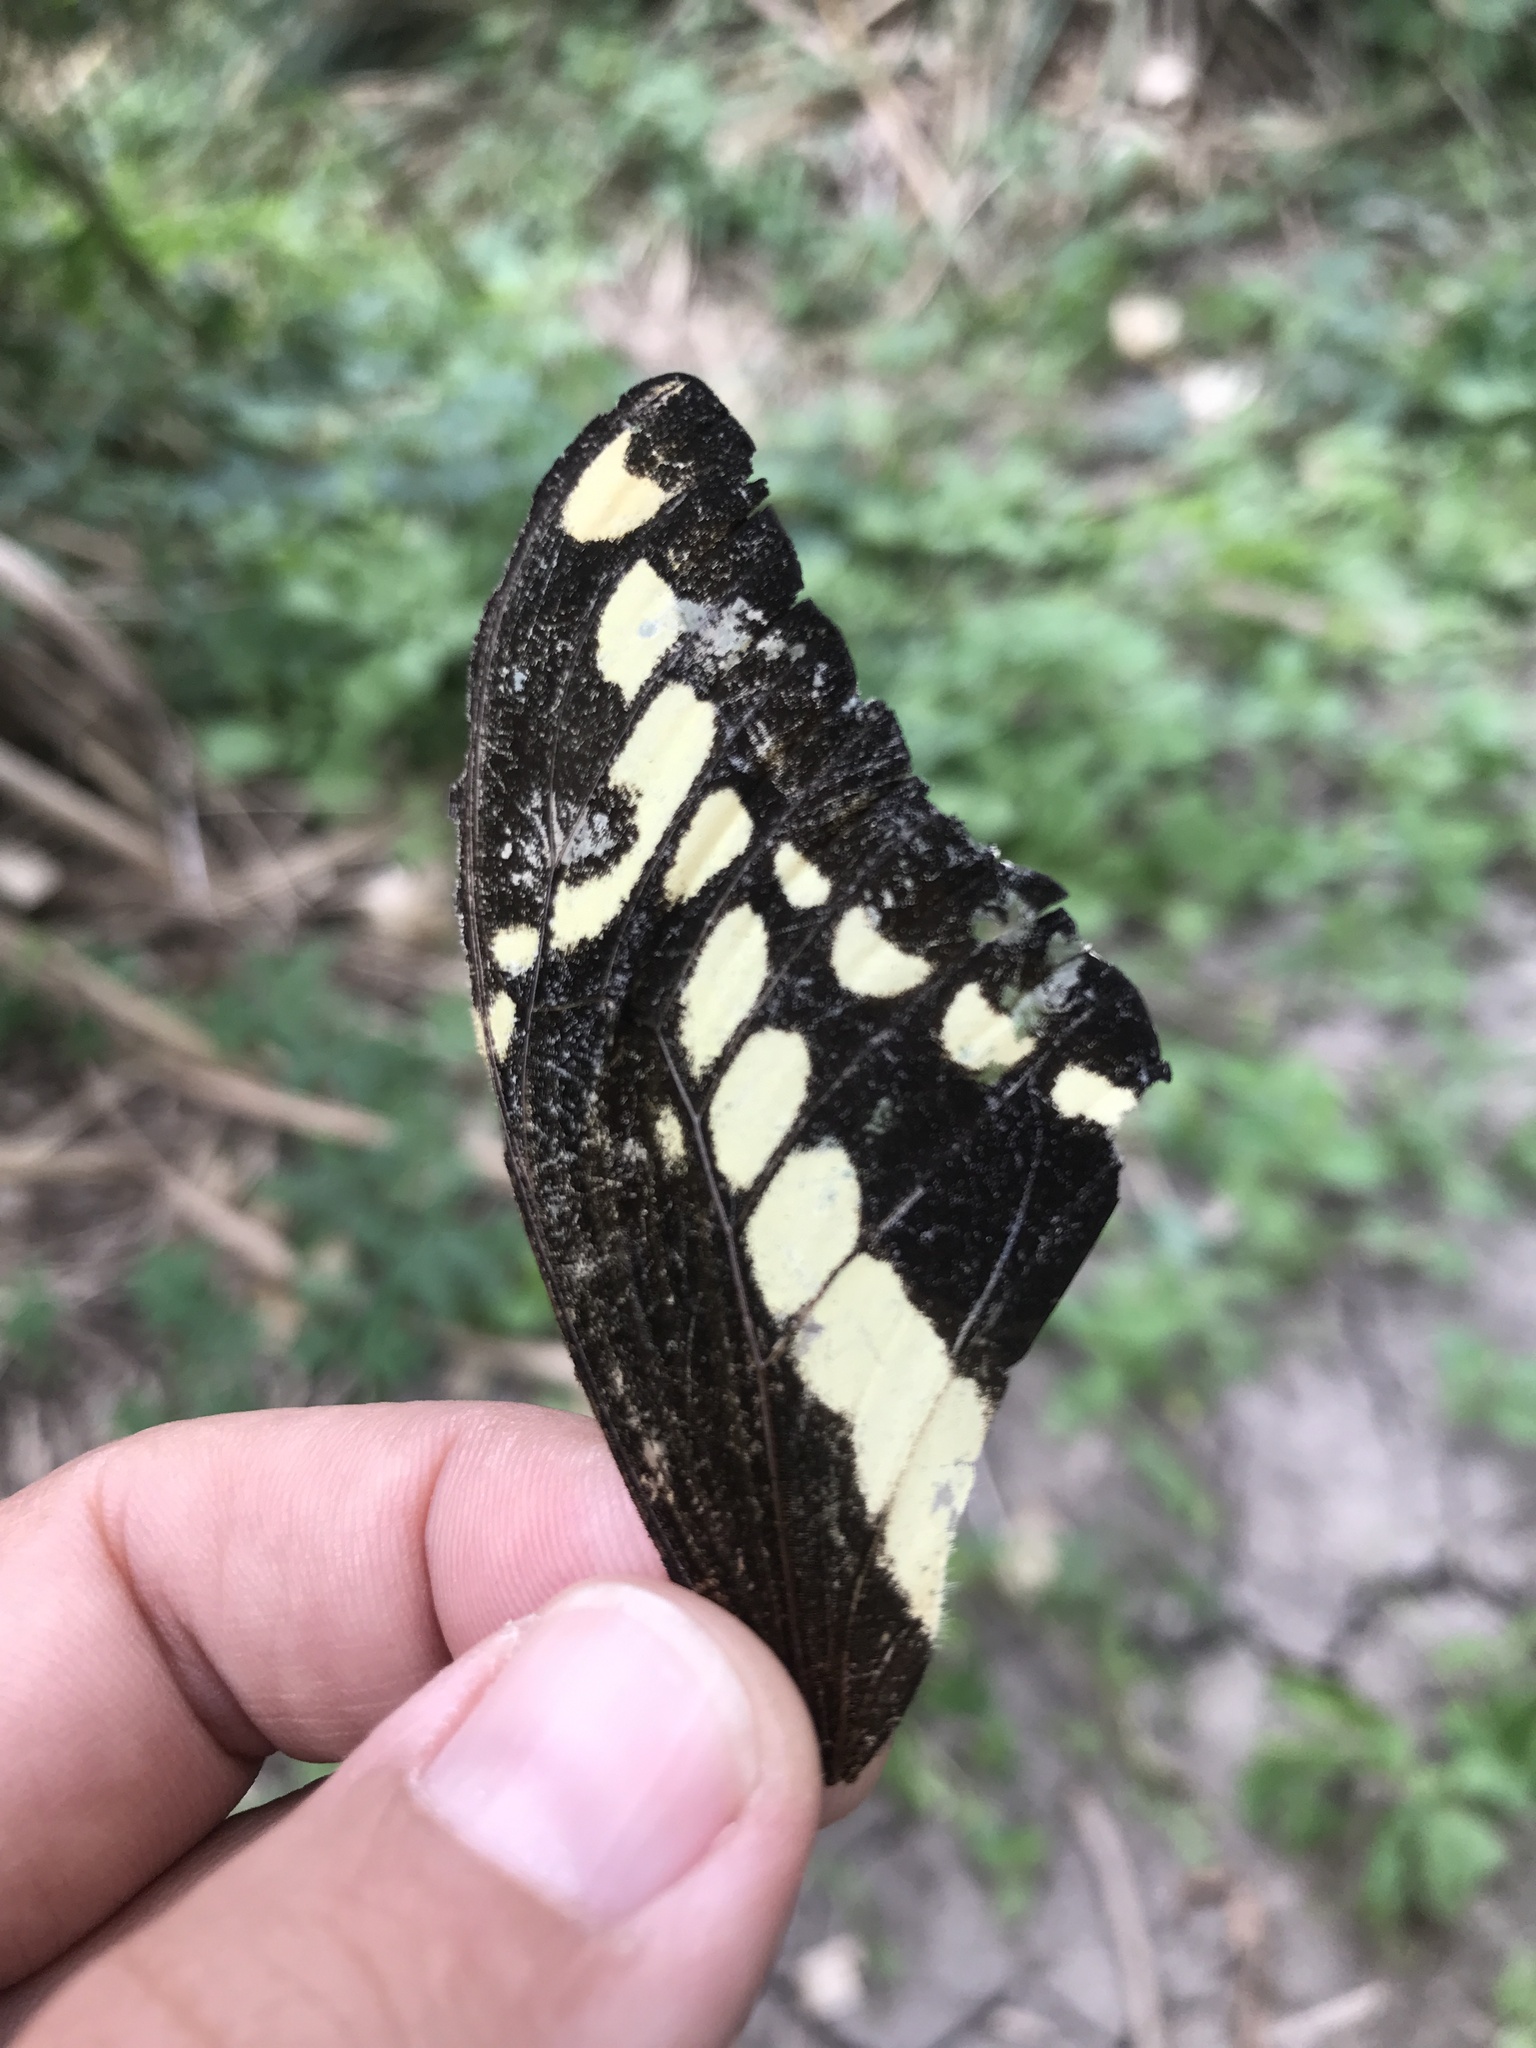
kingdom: Animalia
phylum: Arthropoda
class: Insecta
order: Lepidoptera
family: Papilionidae
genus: Papilio
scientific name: Papilio thoas
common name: King swallowtail
